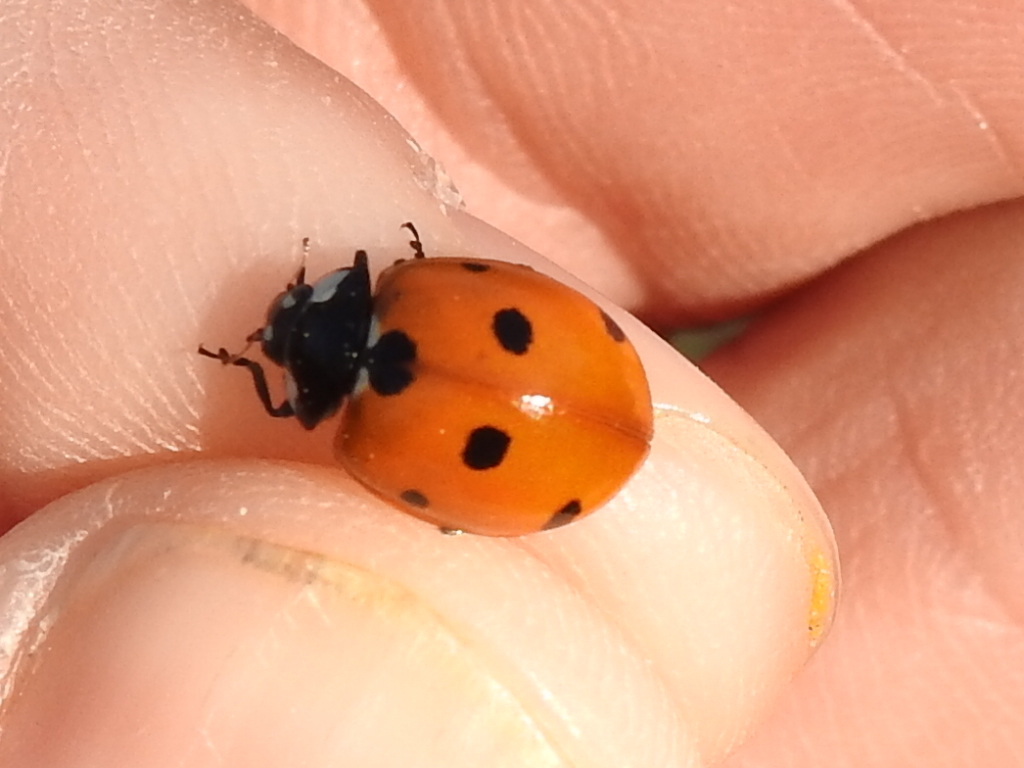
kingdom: Animalia
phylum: Arthropoda
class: Insecta
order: Coleoptera
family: Coccinellidae
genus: Coccinella
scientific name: Coccinella septempunctata
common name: Sevenspotted lady beetle
